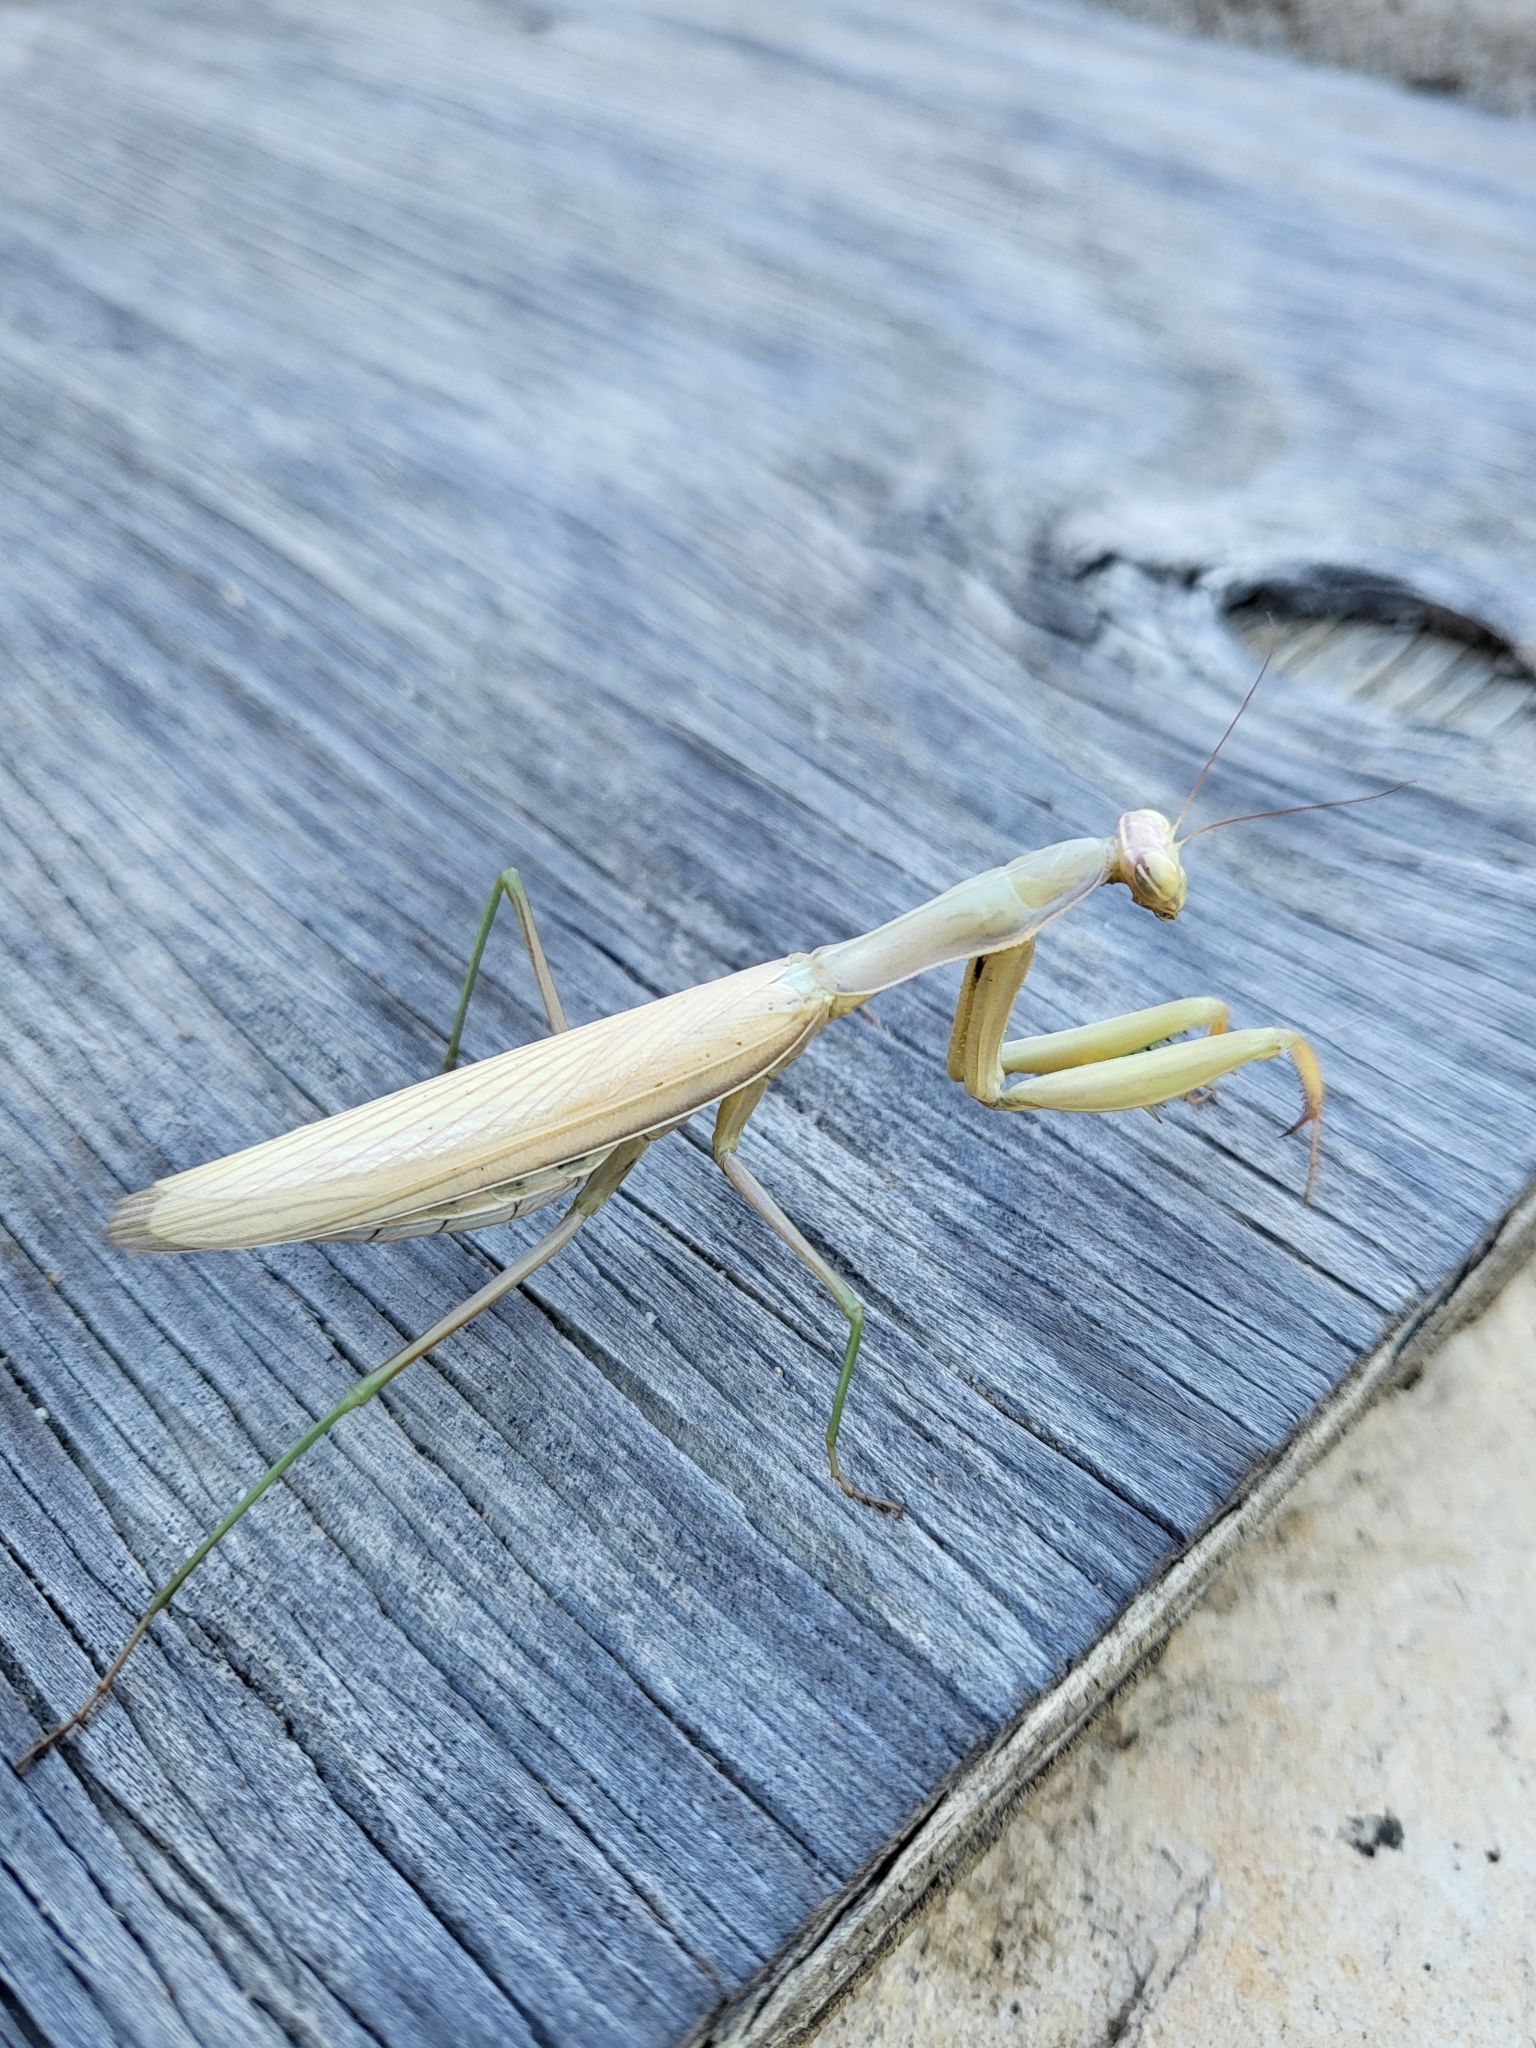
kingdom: Animalia
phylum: Arthropoda
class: Insecta
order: Mantodea
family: Mantidae
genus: Mantis
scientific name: Mantis religiosa
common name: Praying mantis
